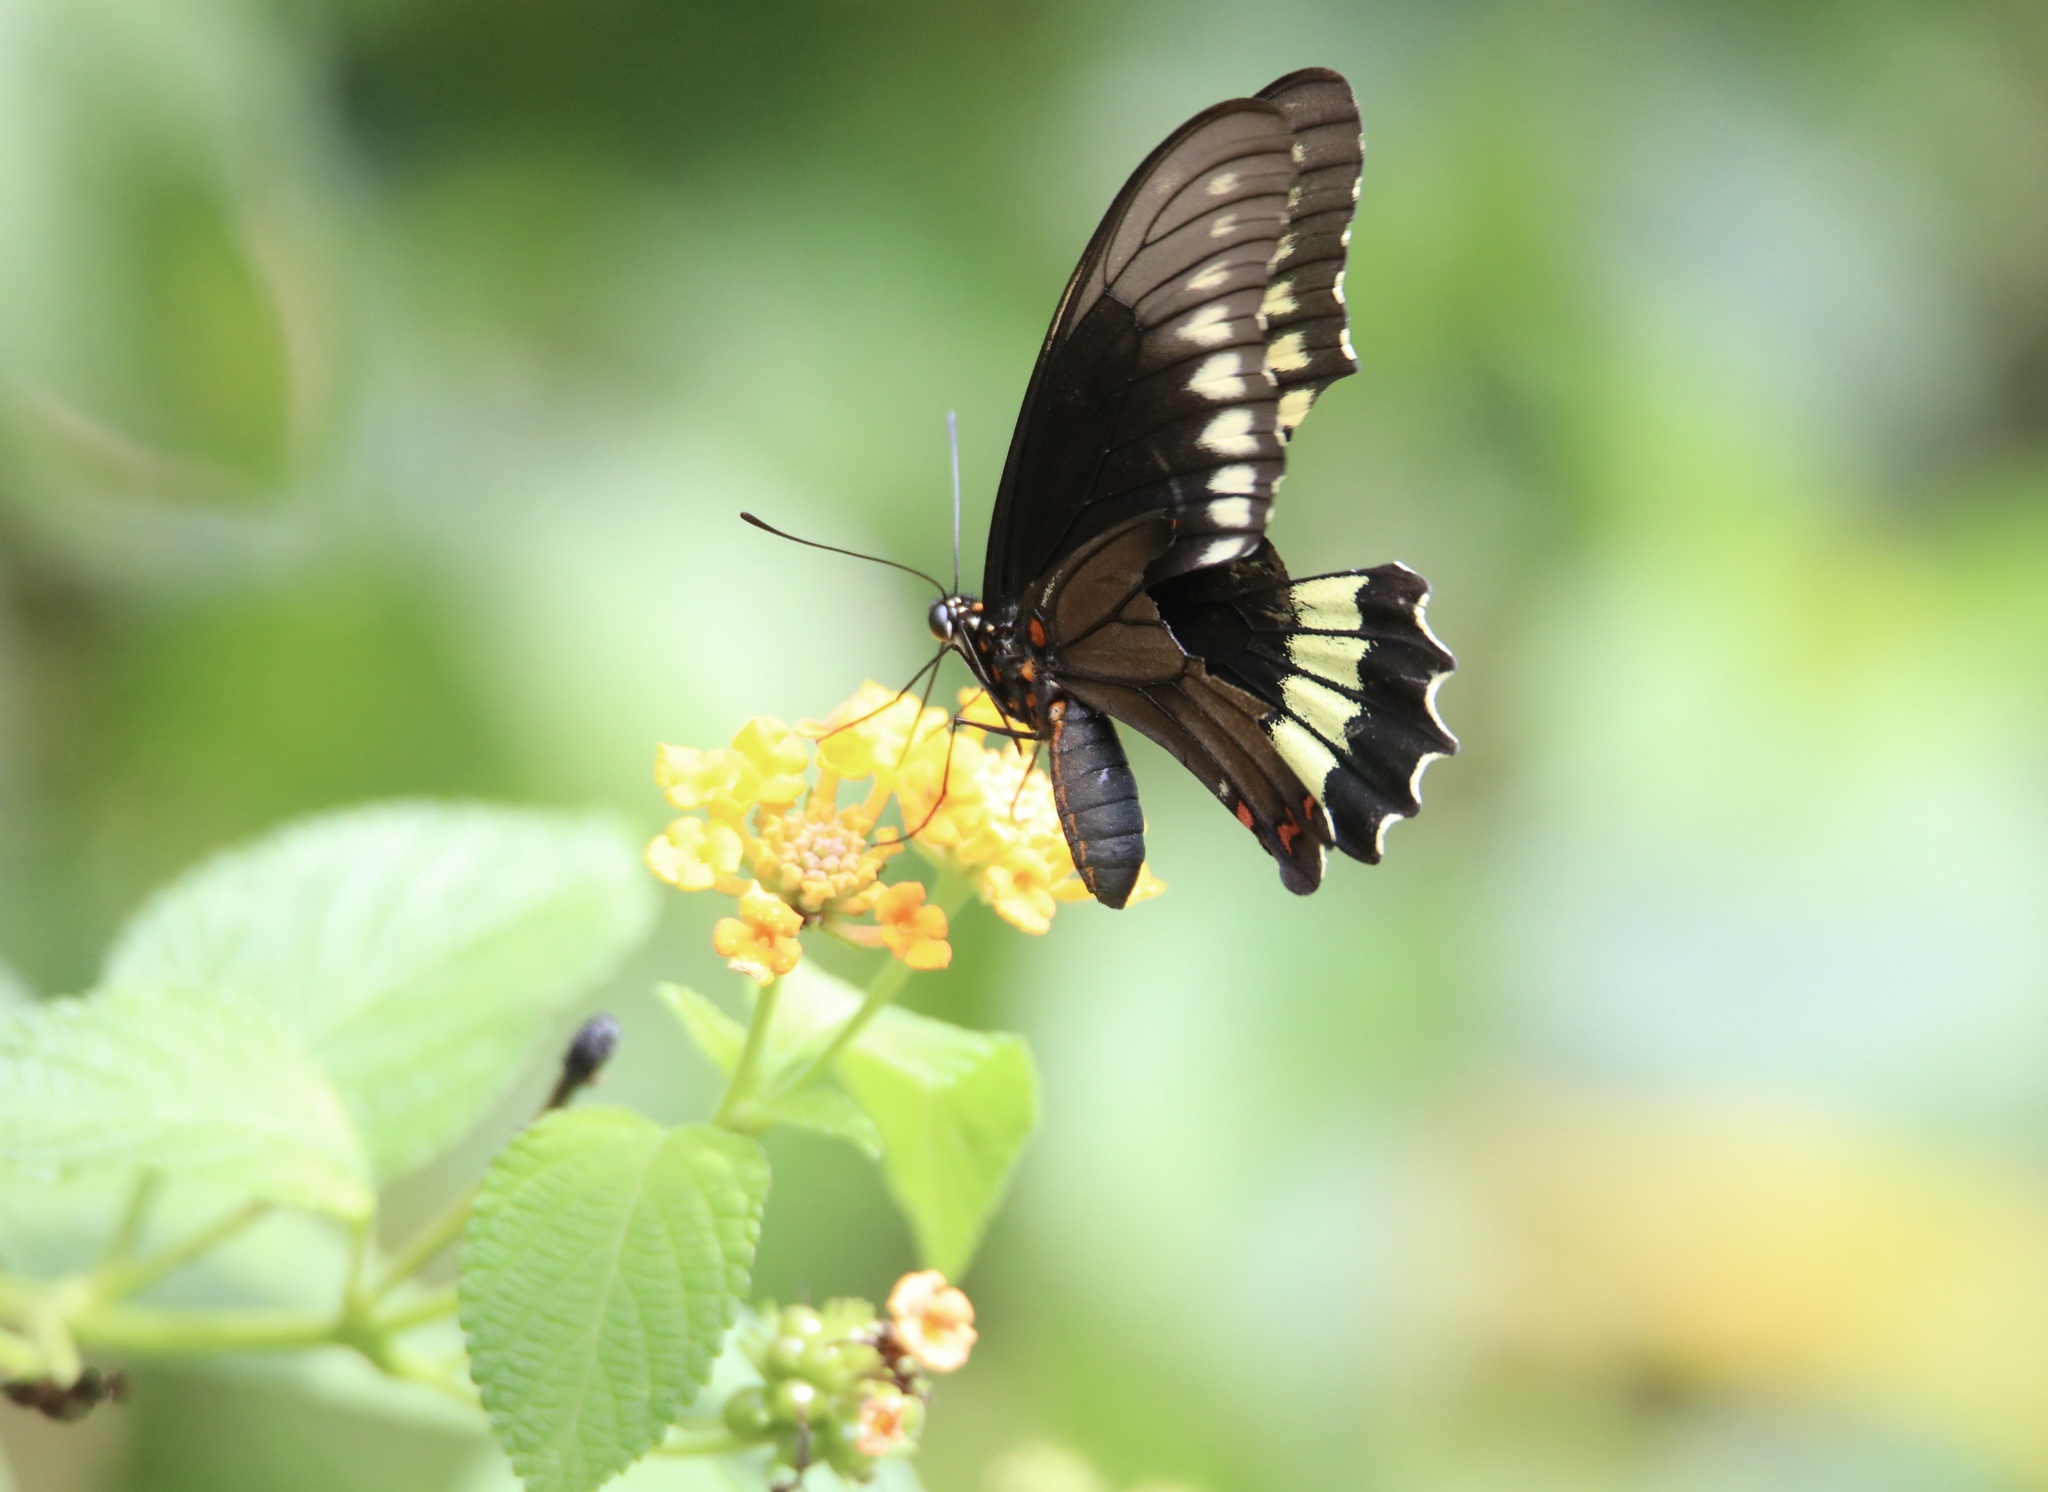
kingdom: Animalia
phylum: Arthropoda
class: Insecta
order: Lepidoptera
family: Papilionidae
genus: Battus
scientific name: Battus polydamas
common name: Polydamas swallowtail
